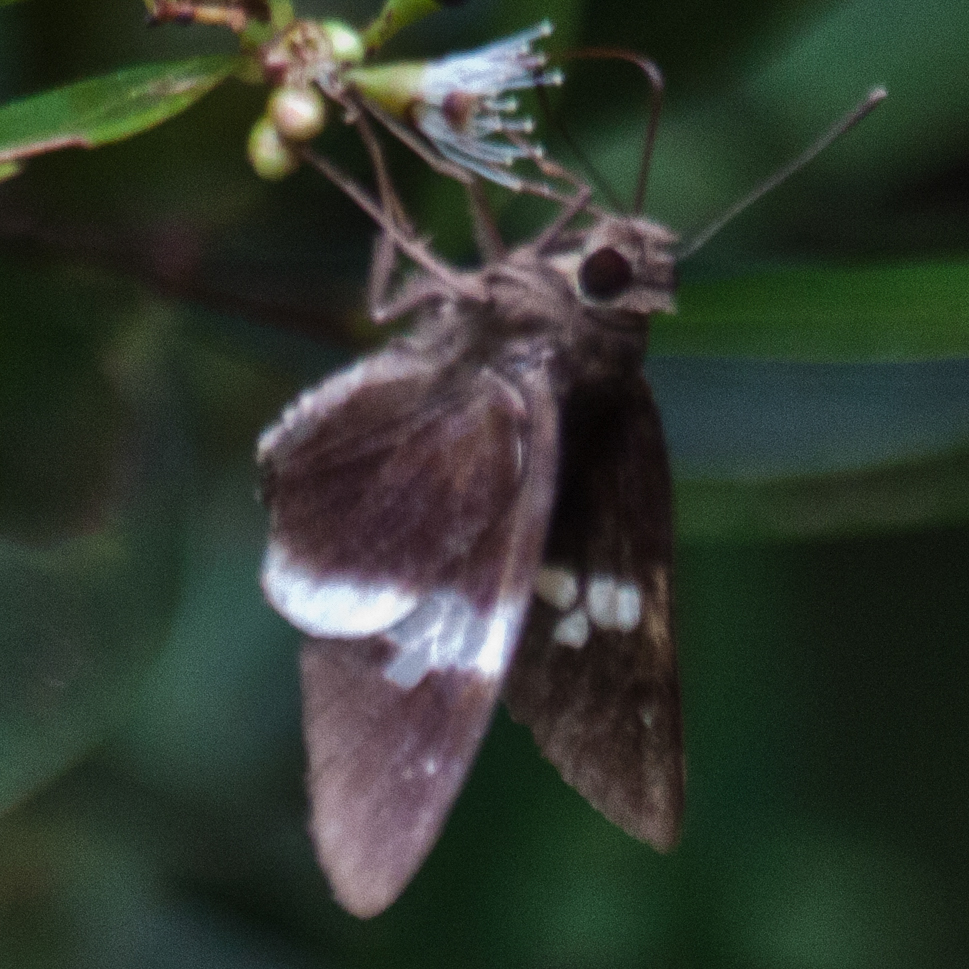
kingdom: Animalia
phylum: Arthropoda
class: Insecta
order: Lepidoptera
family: Hesperiidae
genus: Lotongus
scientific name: Lotongus calathus
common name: White-tipped palmer
